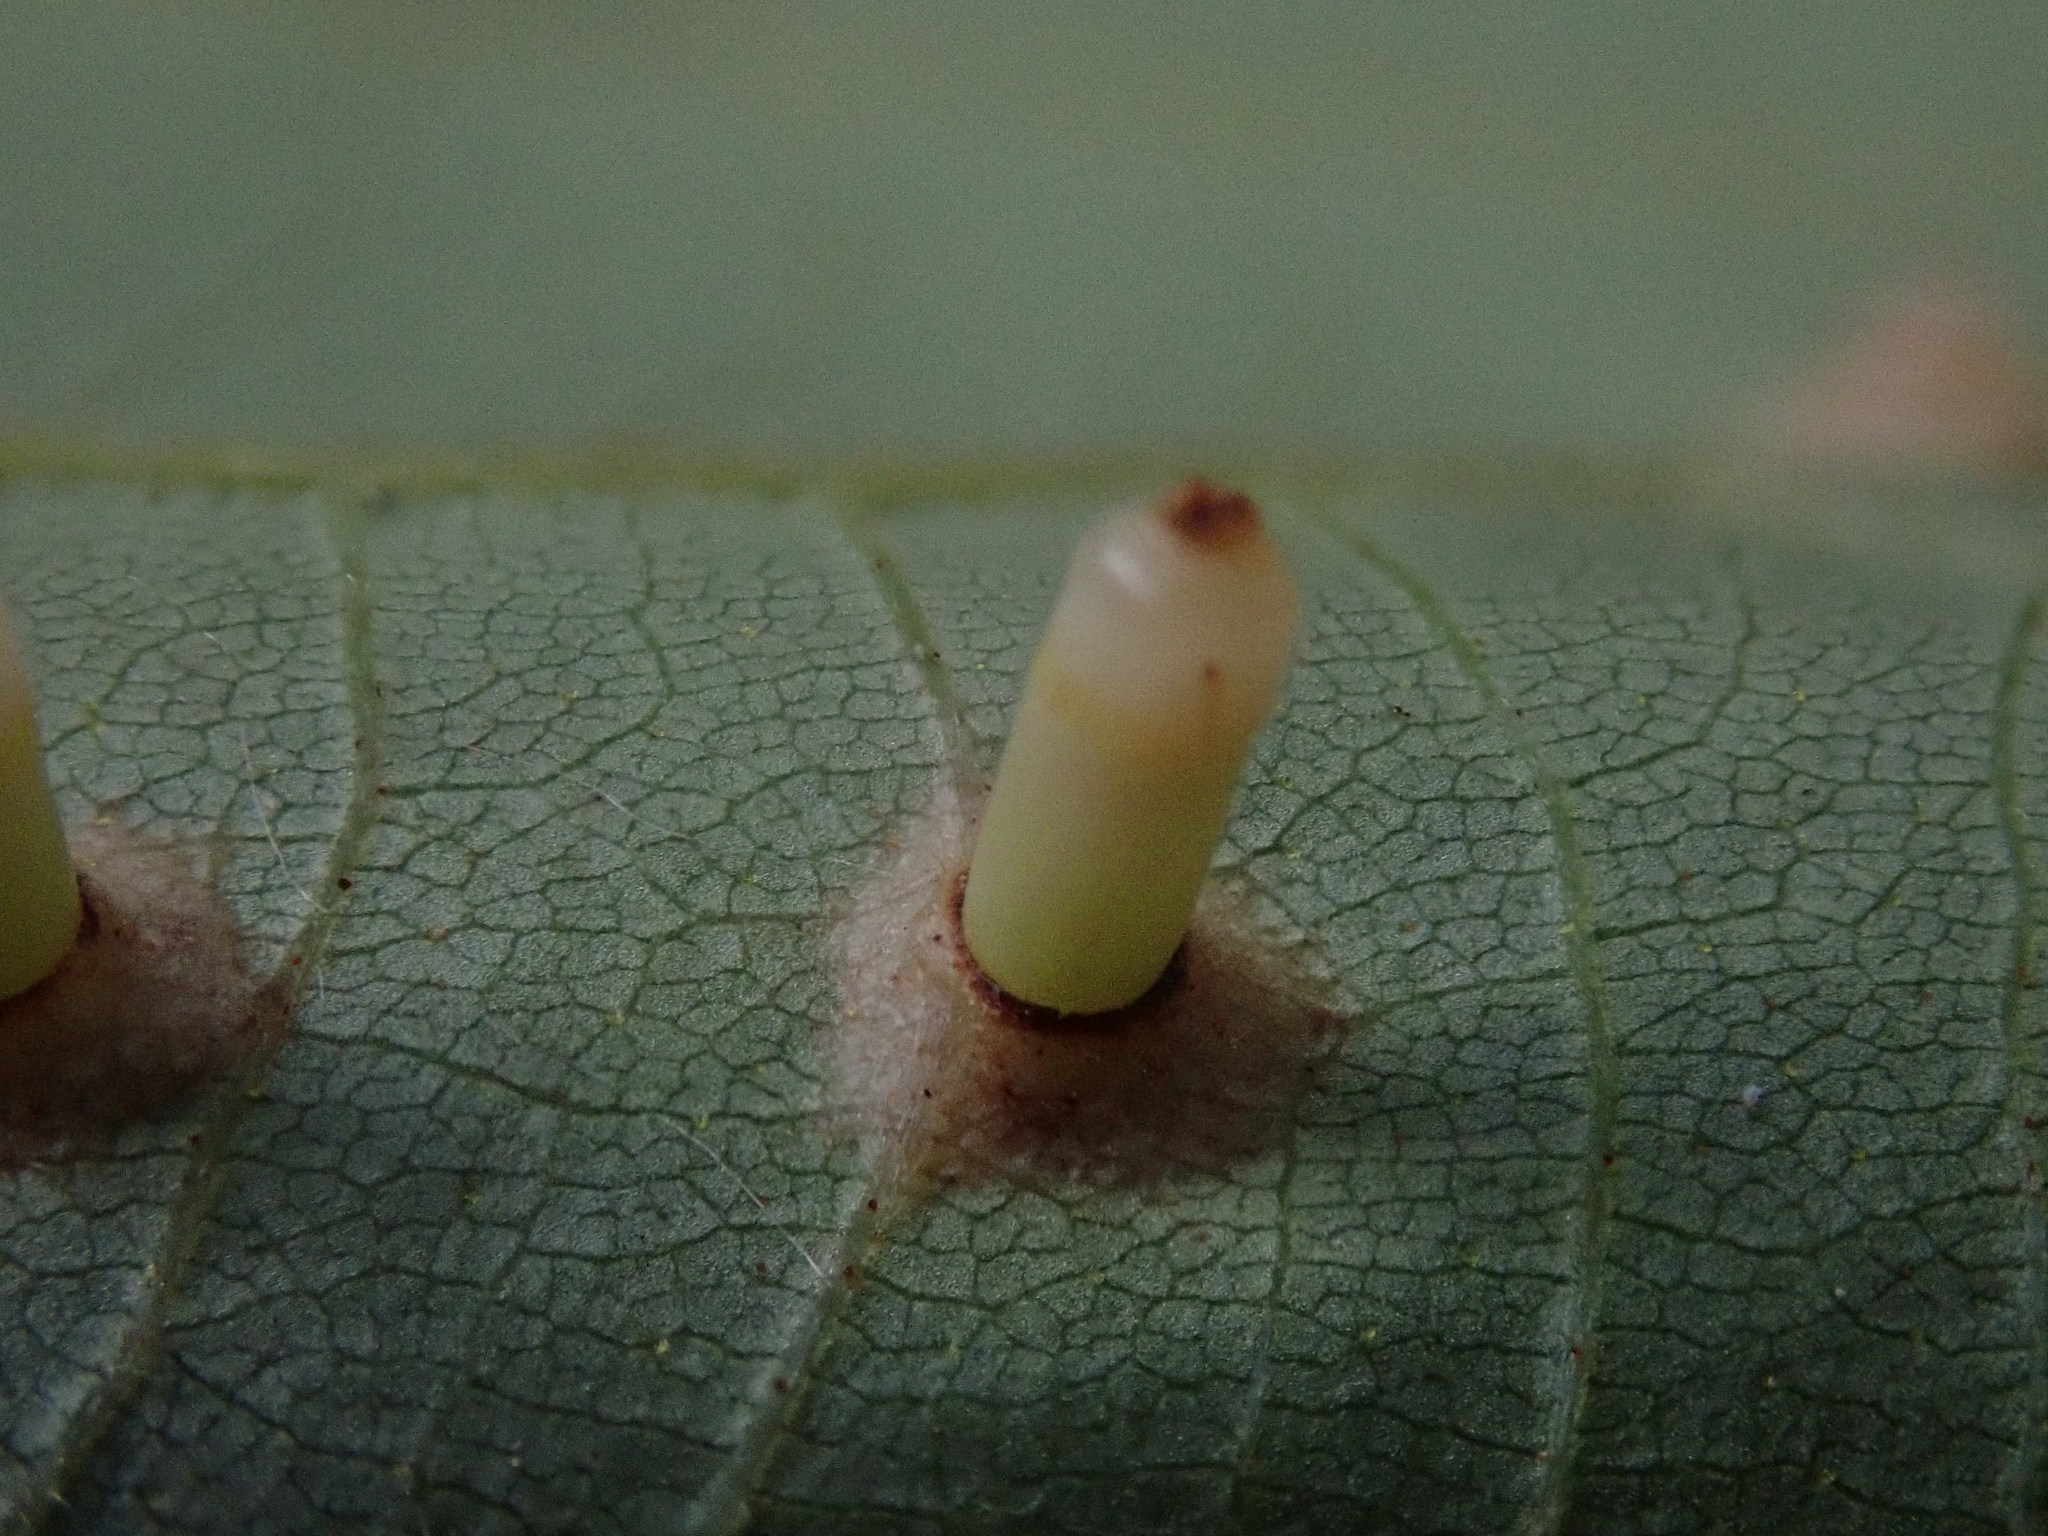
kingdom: Animalia
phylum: Arthropoda
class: Insecta
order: Diptera
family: Cecidomyiidae
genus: Caryomyia
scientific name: Caryomyia tubicola
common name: Hickory bullet gall midge
